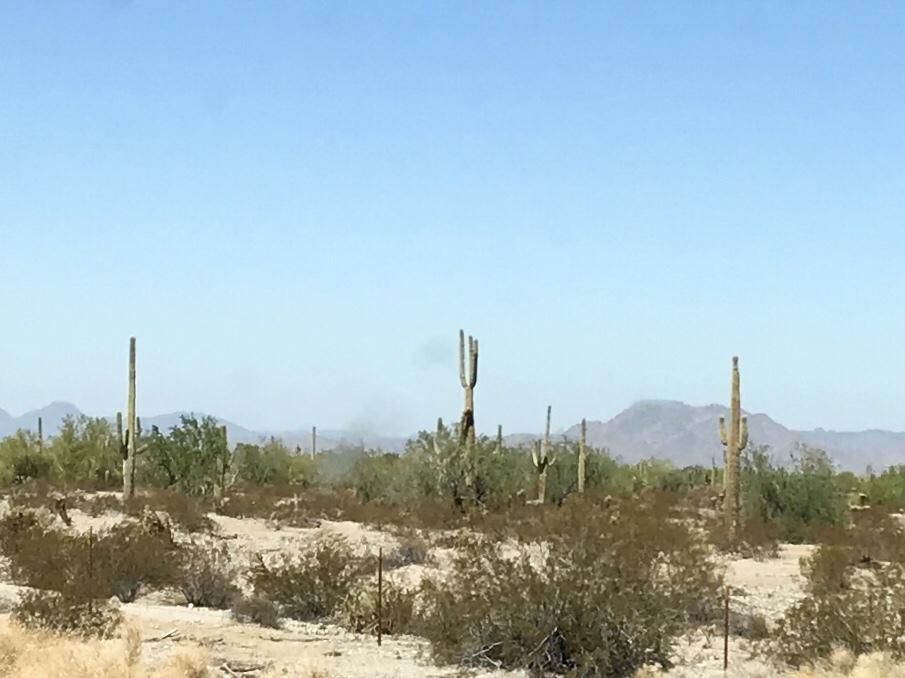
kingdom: Plantae
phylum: Tracheophyta
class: Magnoliopsida
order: Caryophyllales
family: Cactaceae
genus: Carnegiea
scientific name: Carnegiea gigantea
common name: Saguaro
